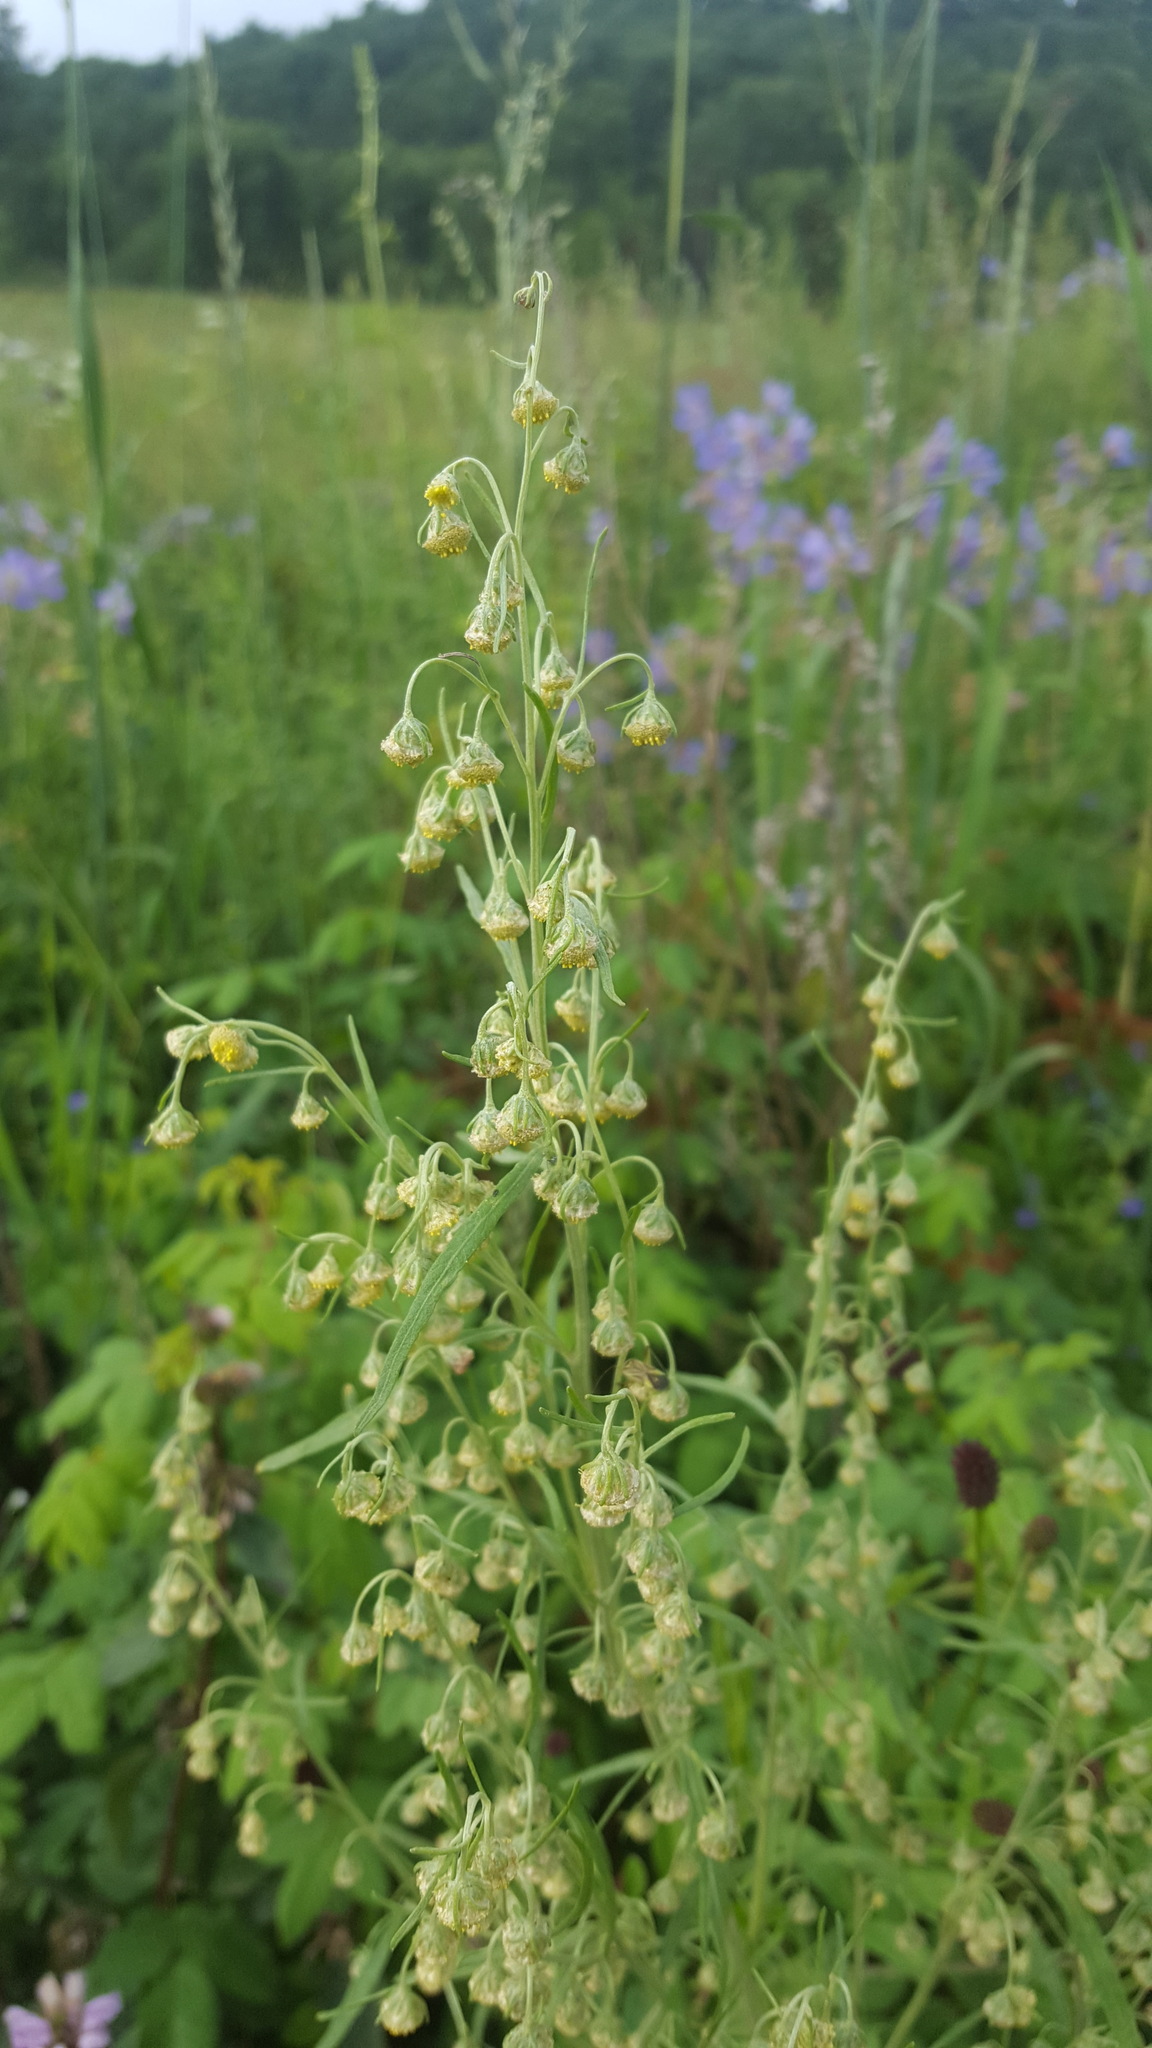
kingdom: Plantae
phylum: Tracheophyta
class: Magnoliopsida
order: Asterales
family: Asteraceae
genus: Artemisia
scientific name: Artemisia sieversiana
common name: Sieversian wormwood
